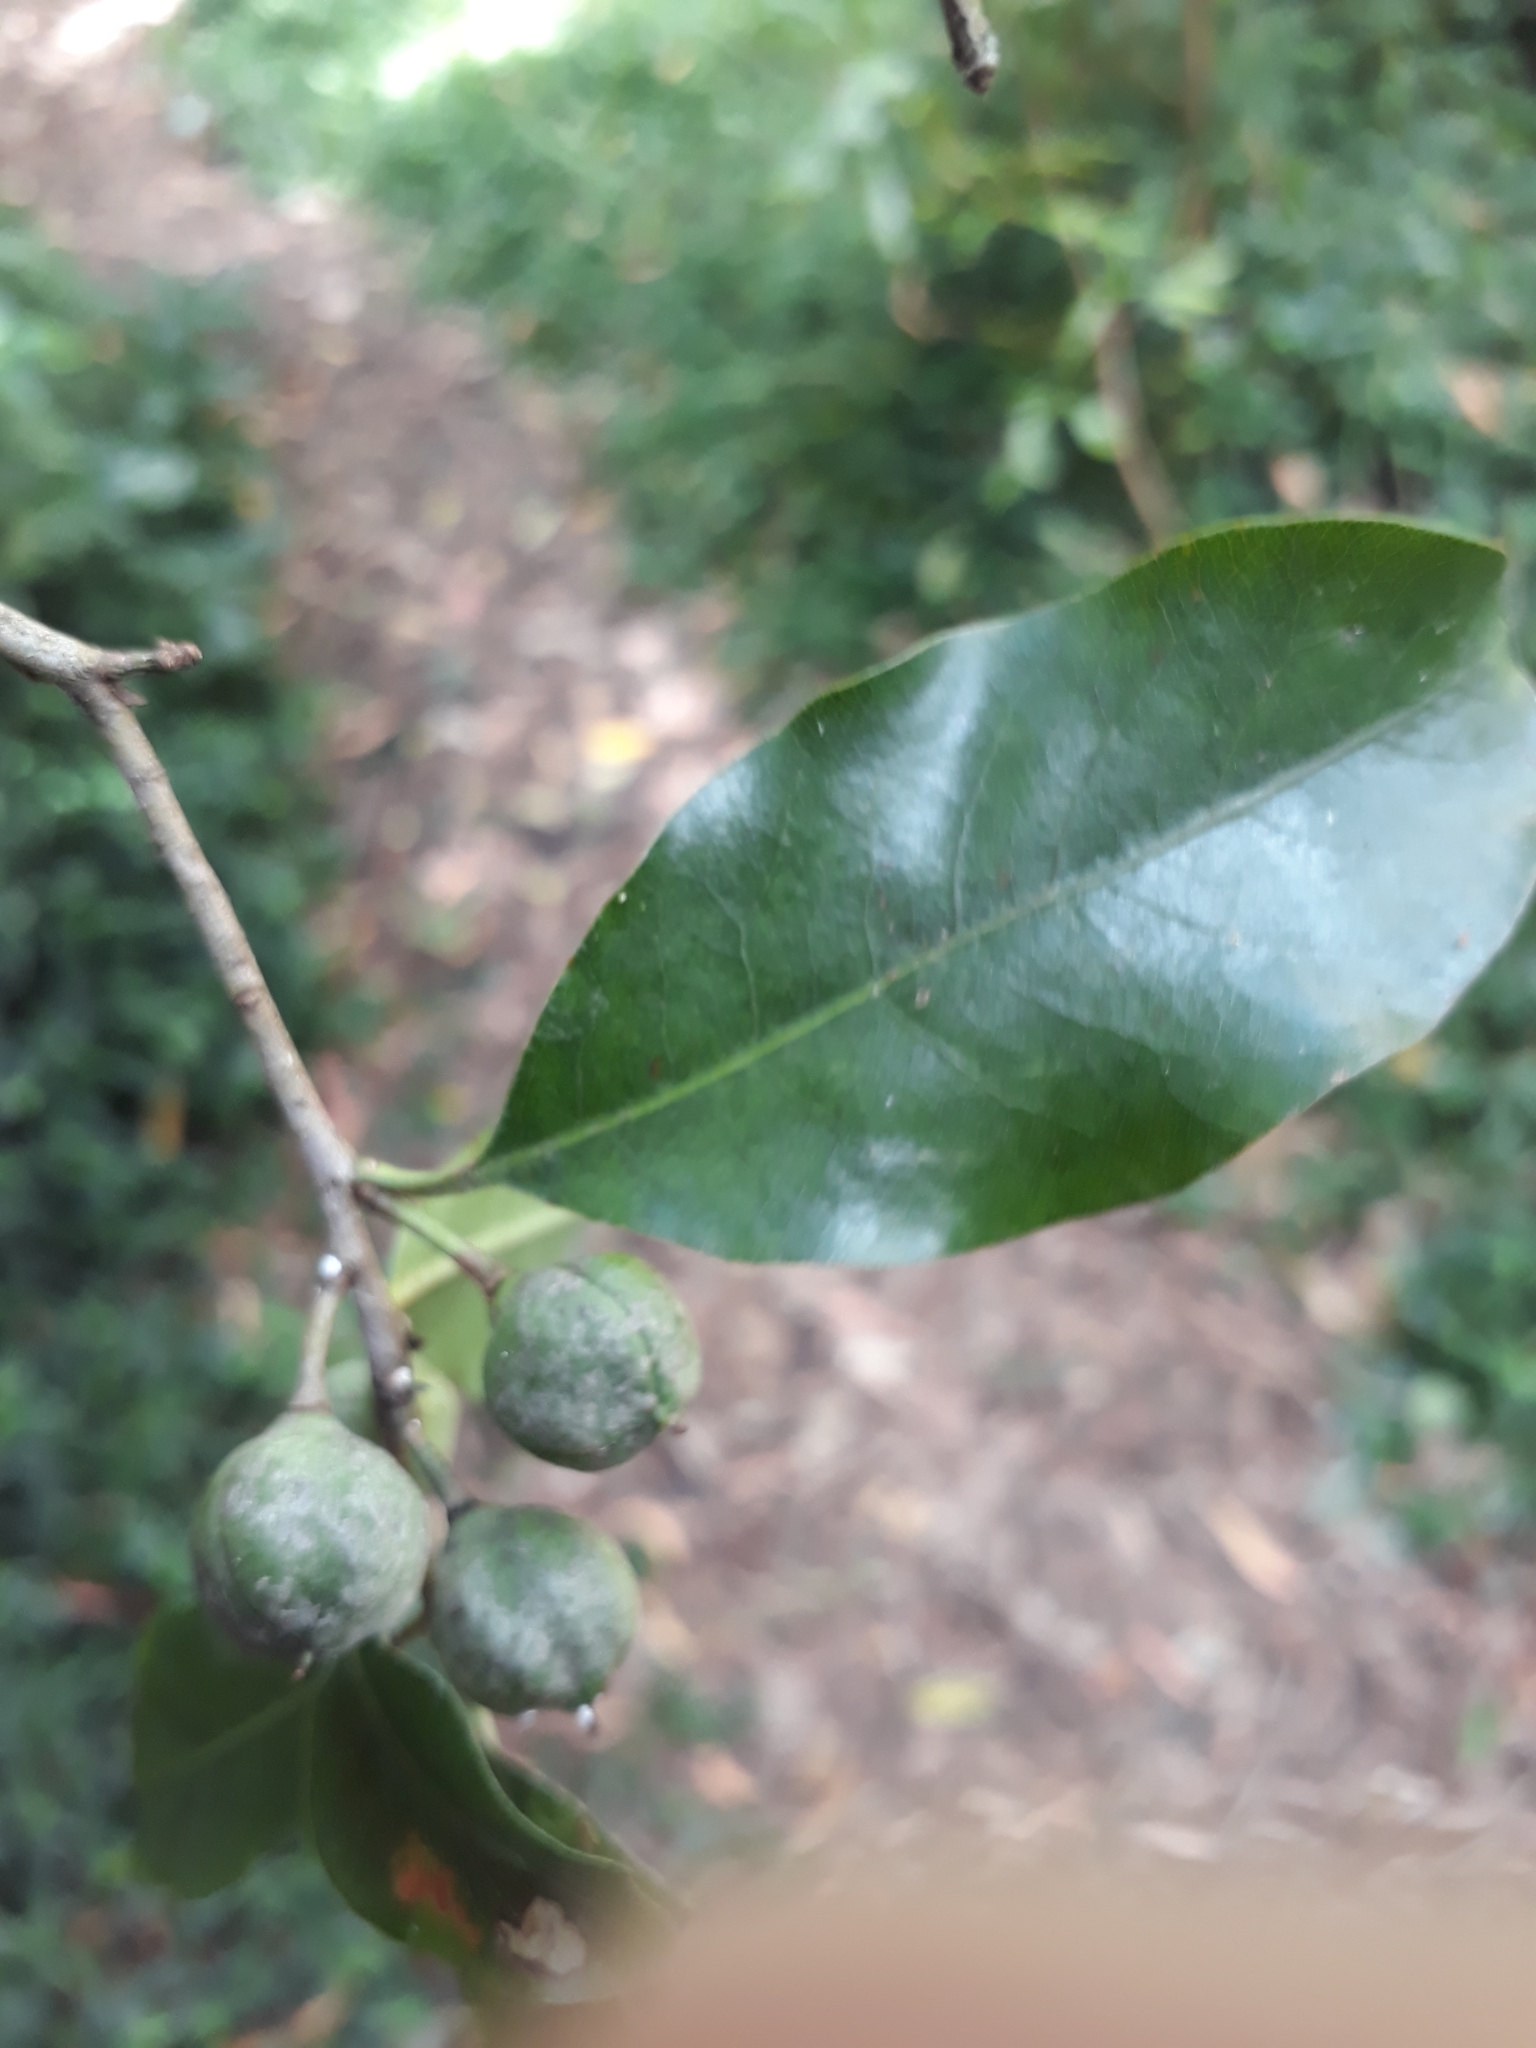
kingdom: Plantae
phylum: Tracheophyta
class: Magnoliopsida
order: Apiales
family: Pittosporaceae
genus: Pittosporum
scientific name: Pittosporum tenuifolium
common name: Kohuhu
